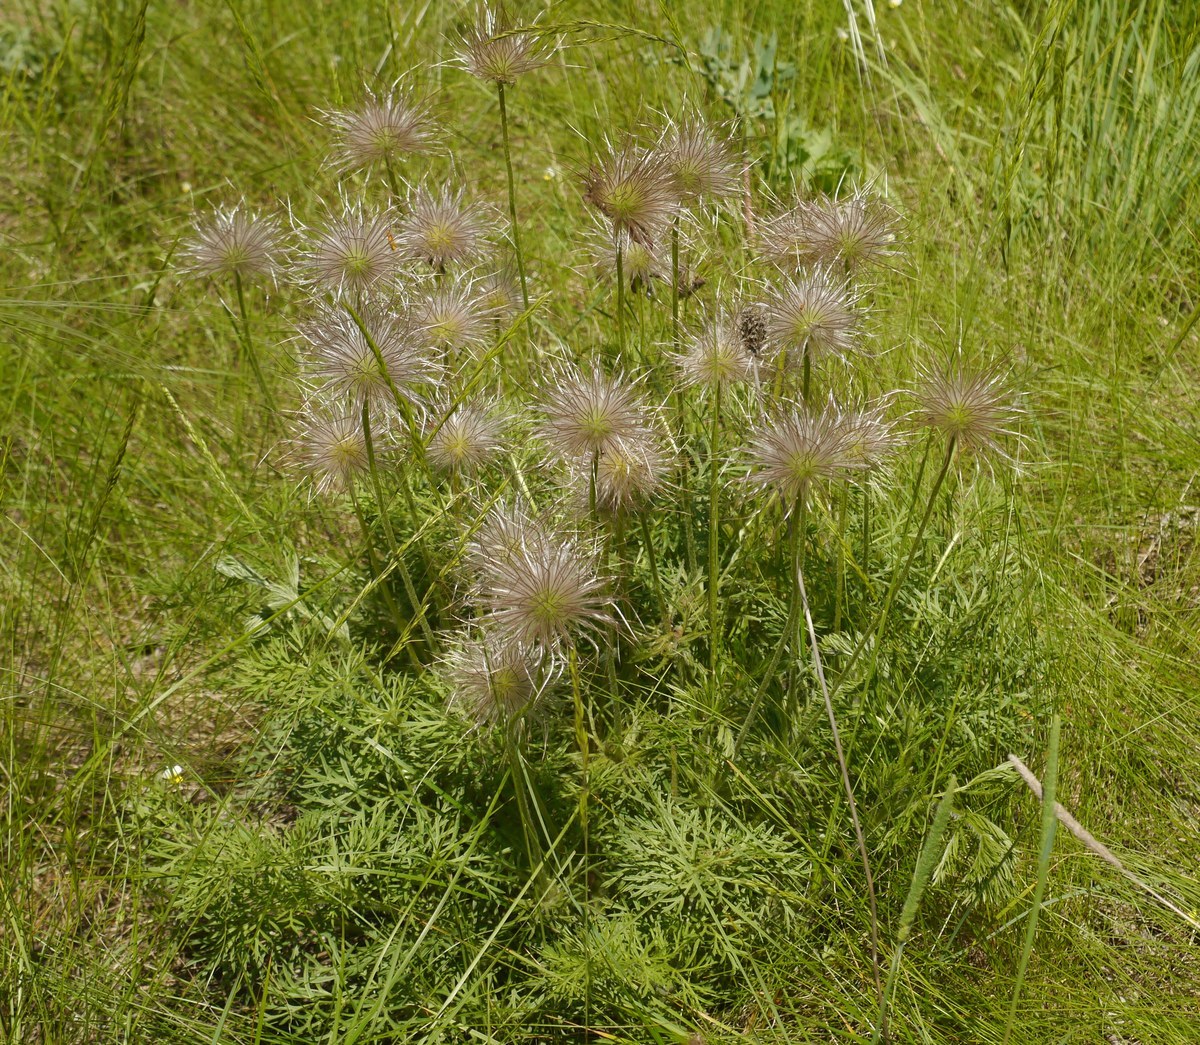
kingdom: Plantae
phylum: Tracheophyta
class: Magnoliopsida
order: Ranunculales
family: Ranunculaceae
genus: Pulsatilla
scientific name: Pulsatilla pratensis
